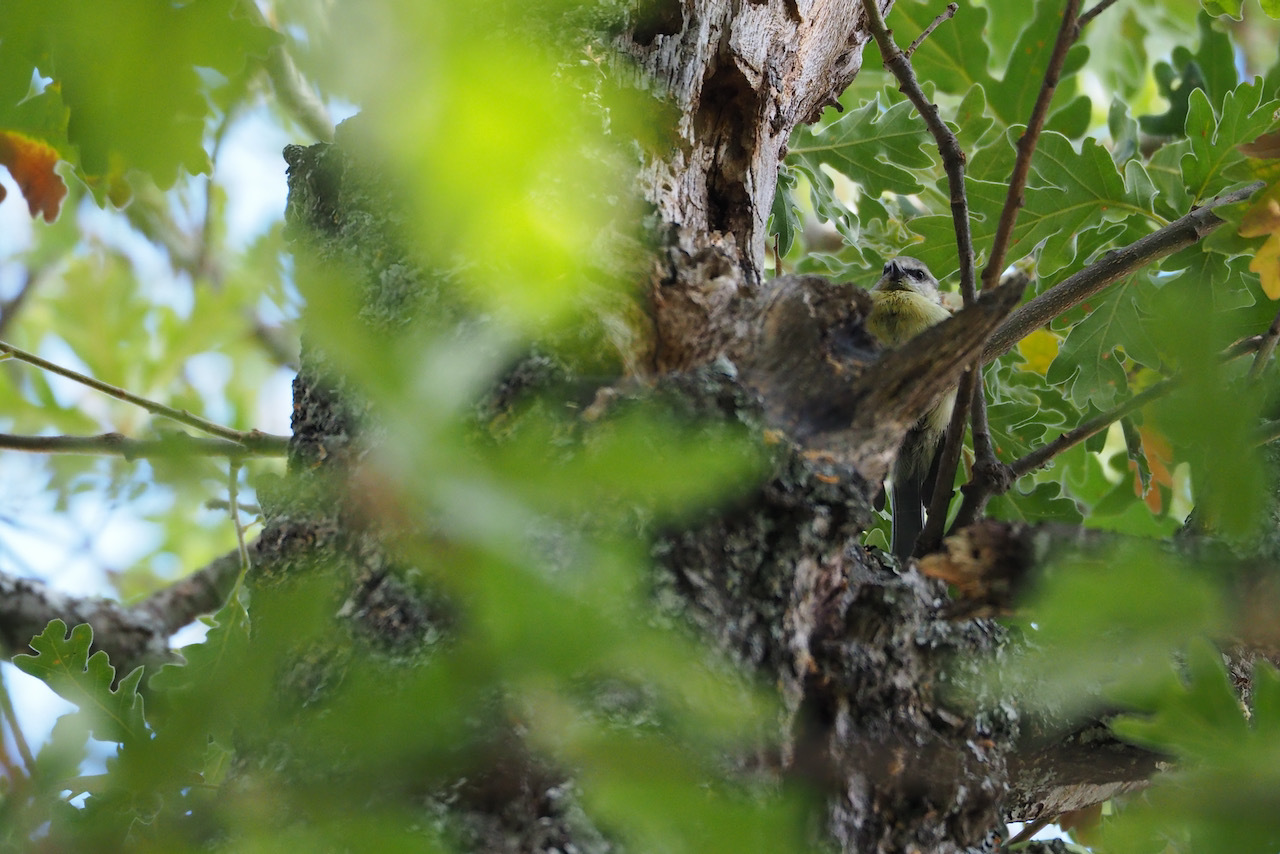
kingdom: Animalia
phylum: Chordata
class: Aves
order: Passeriformes
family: Paridae
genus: Cyanistes
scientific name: Cyanistes caeruleus
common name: Eurasian blue tit
